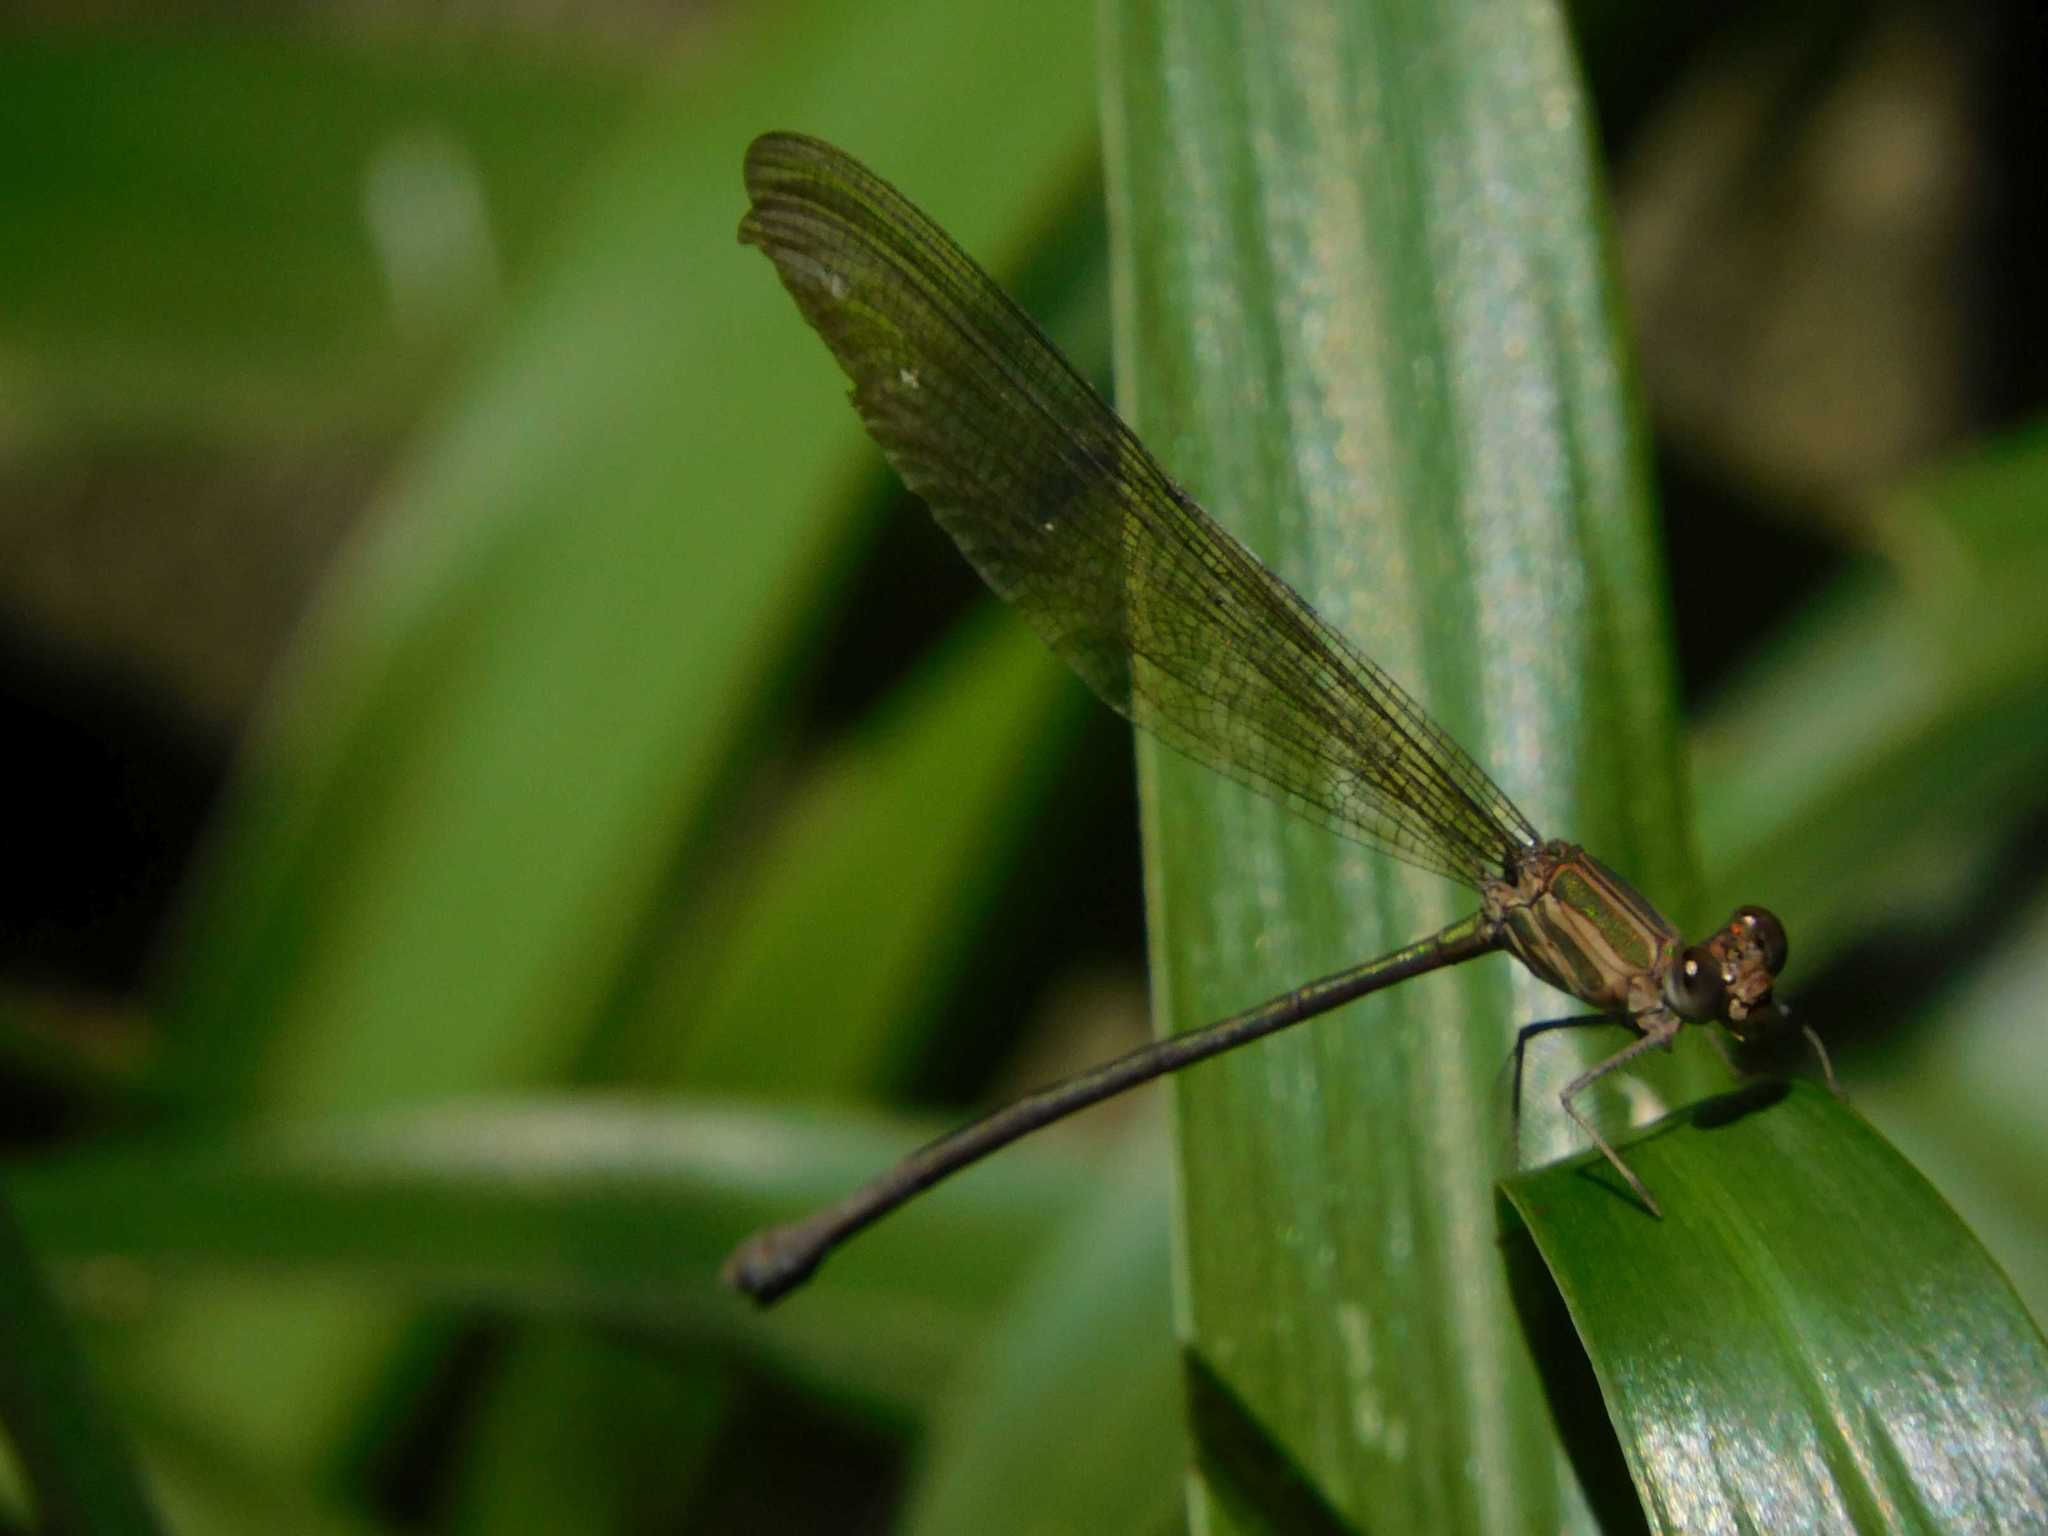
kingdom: Animalia
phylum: Arthropoda
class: Insecta
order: Odonata
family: Calopterygidae
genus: Phaon
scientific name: Phaon iridipennis
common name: Glistening demoiselle
